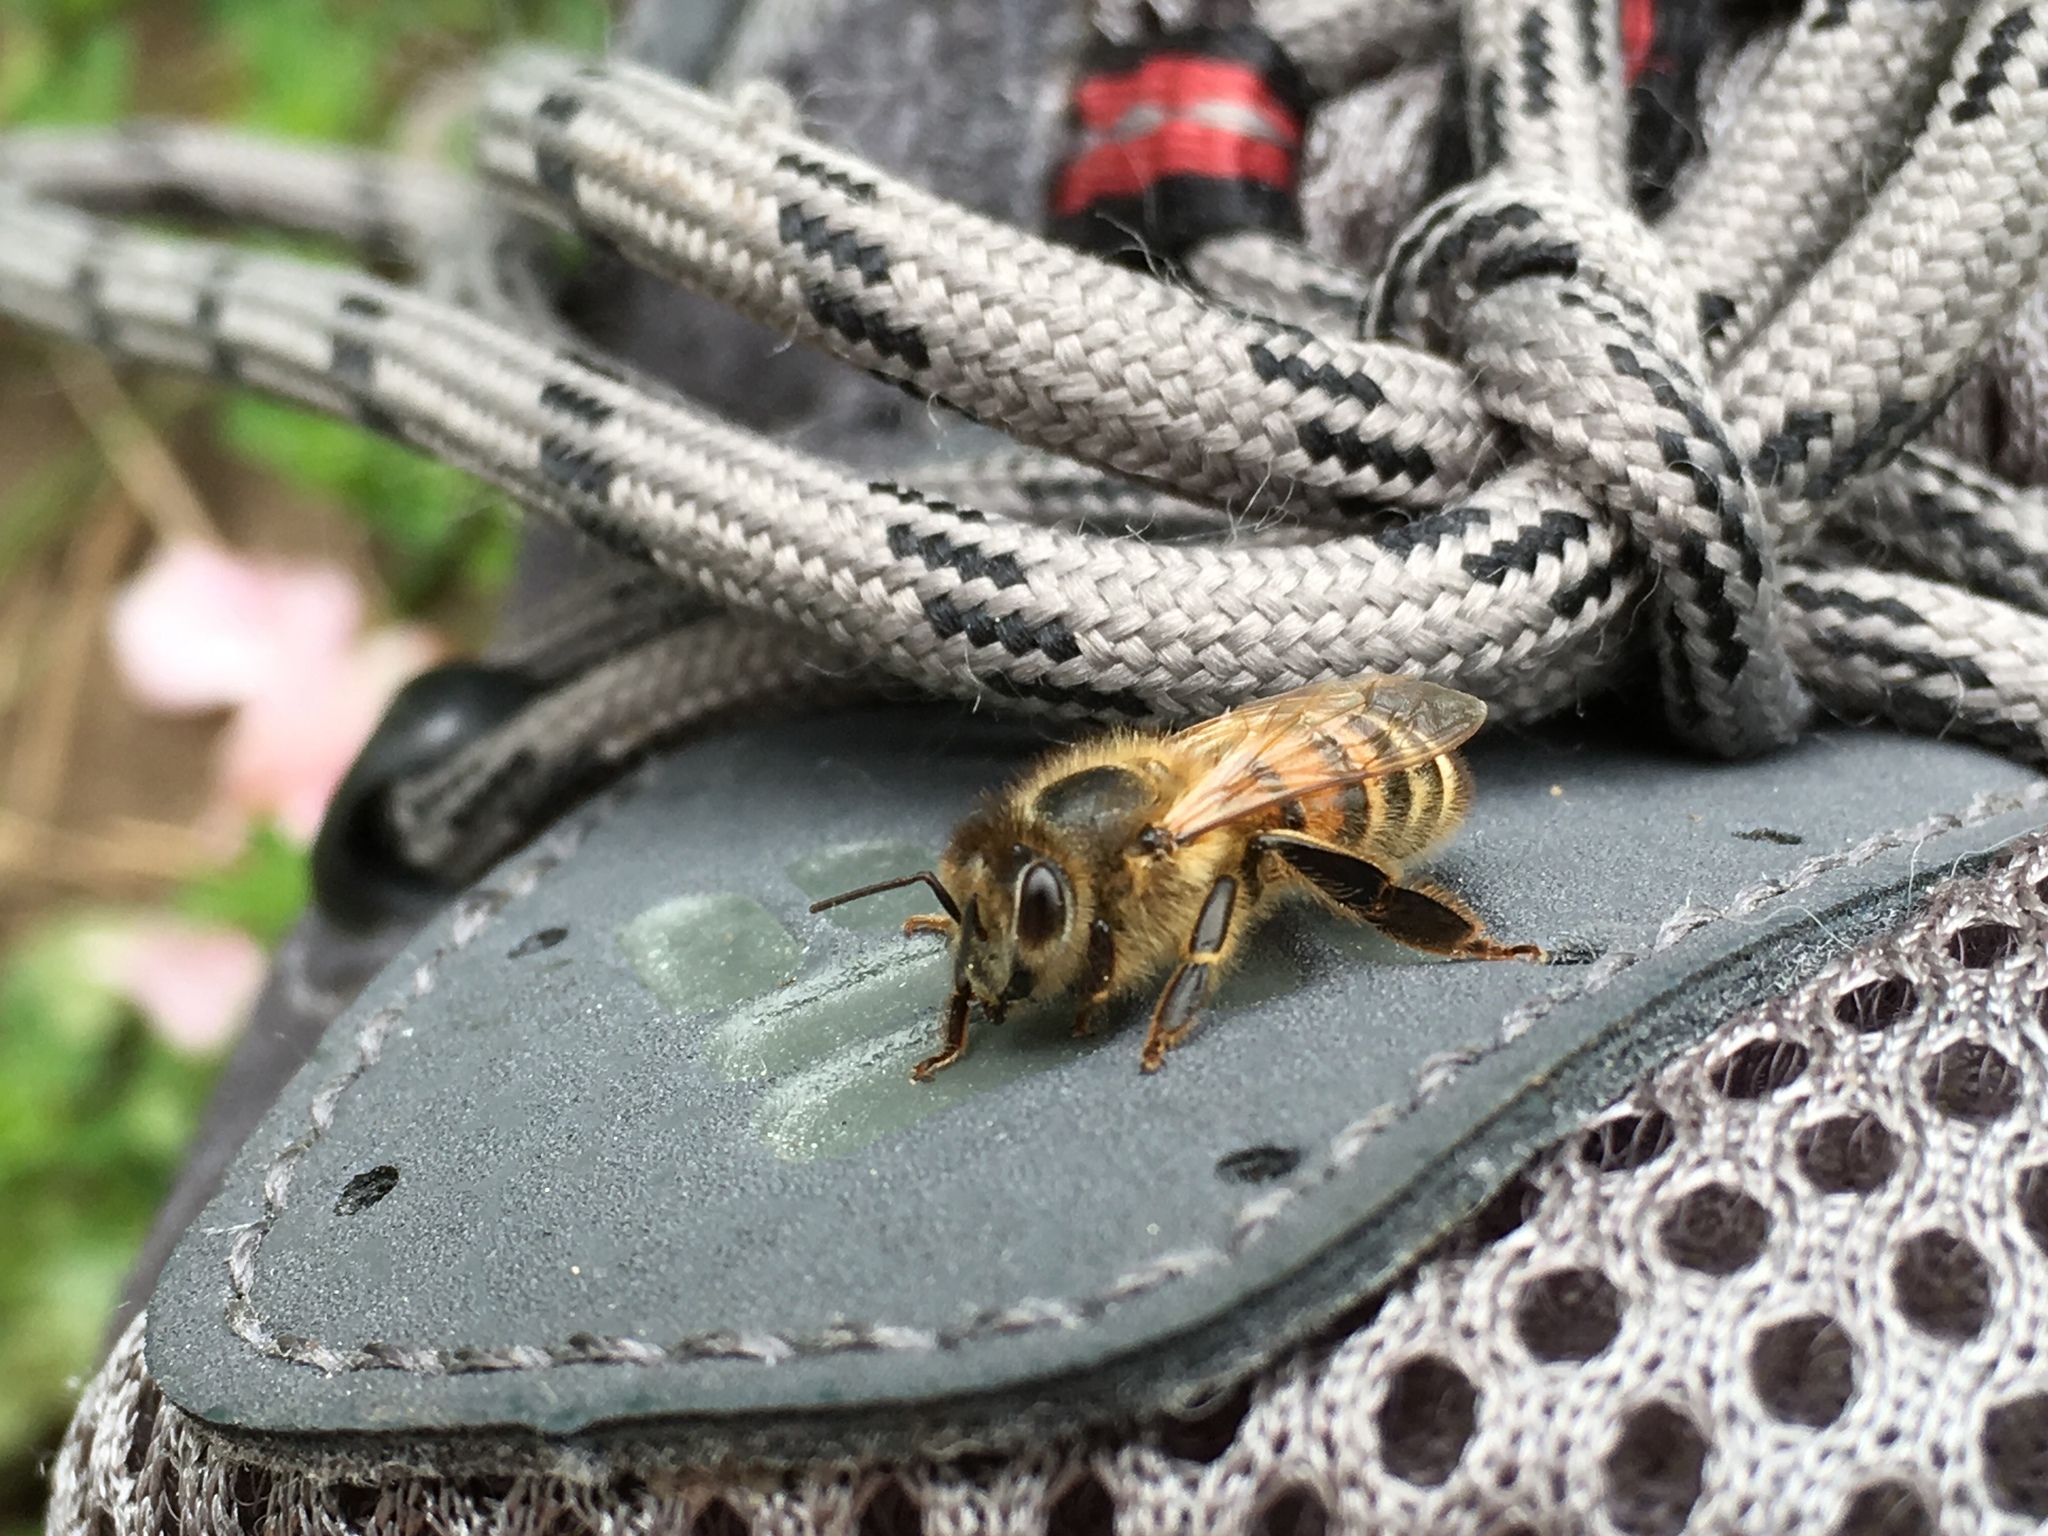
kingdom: Animalia
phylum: Arthropoda
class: Insecta
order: Hymenoptera
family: Apidae
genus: Apis
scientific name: Apis mellifera
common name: Honey bee
